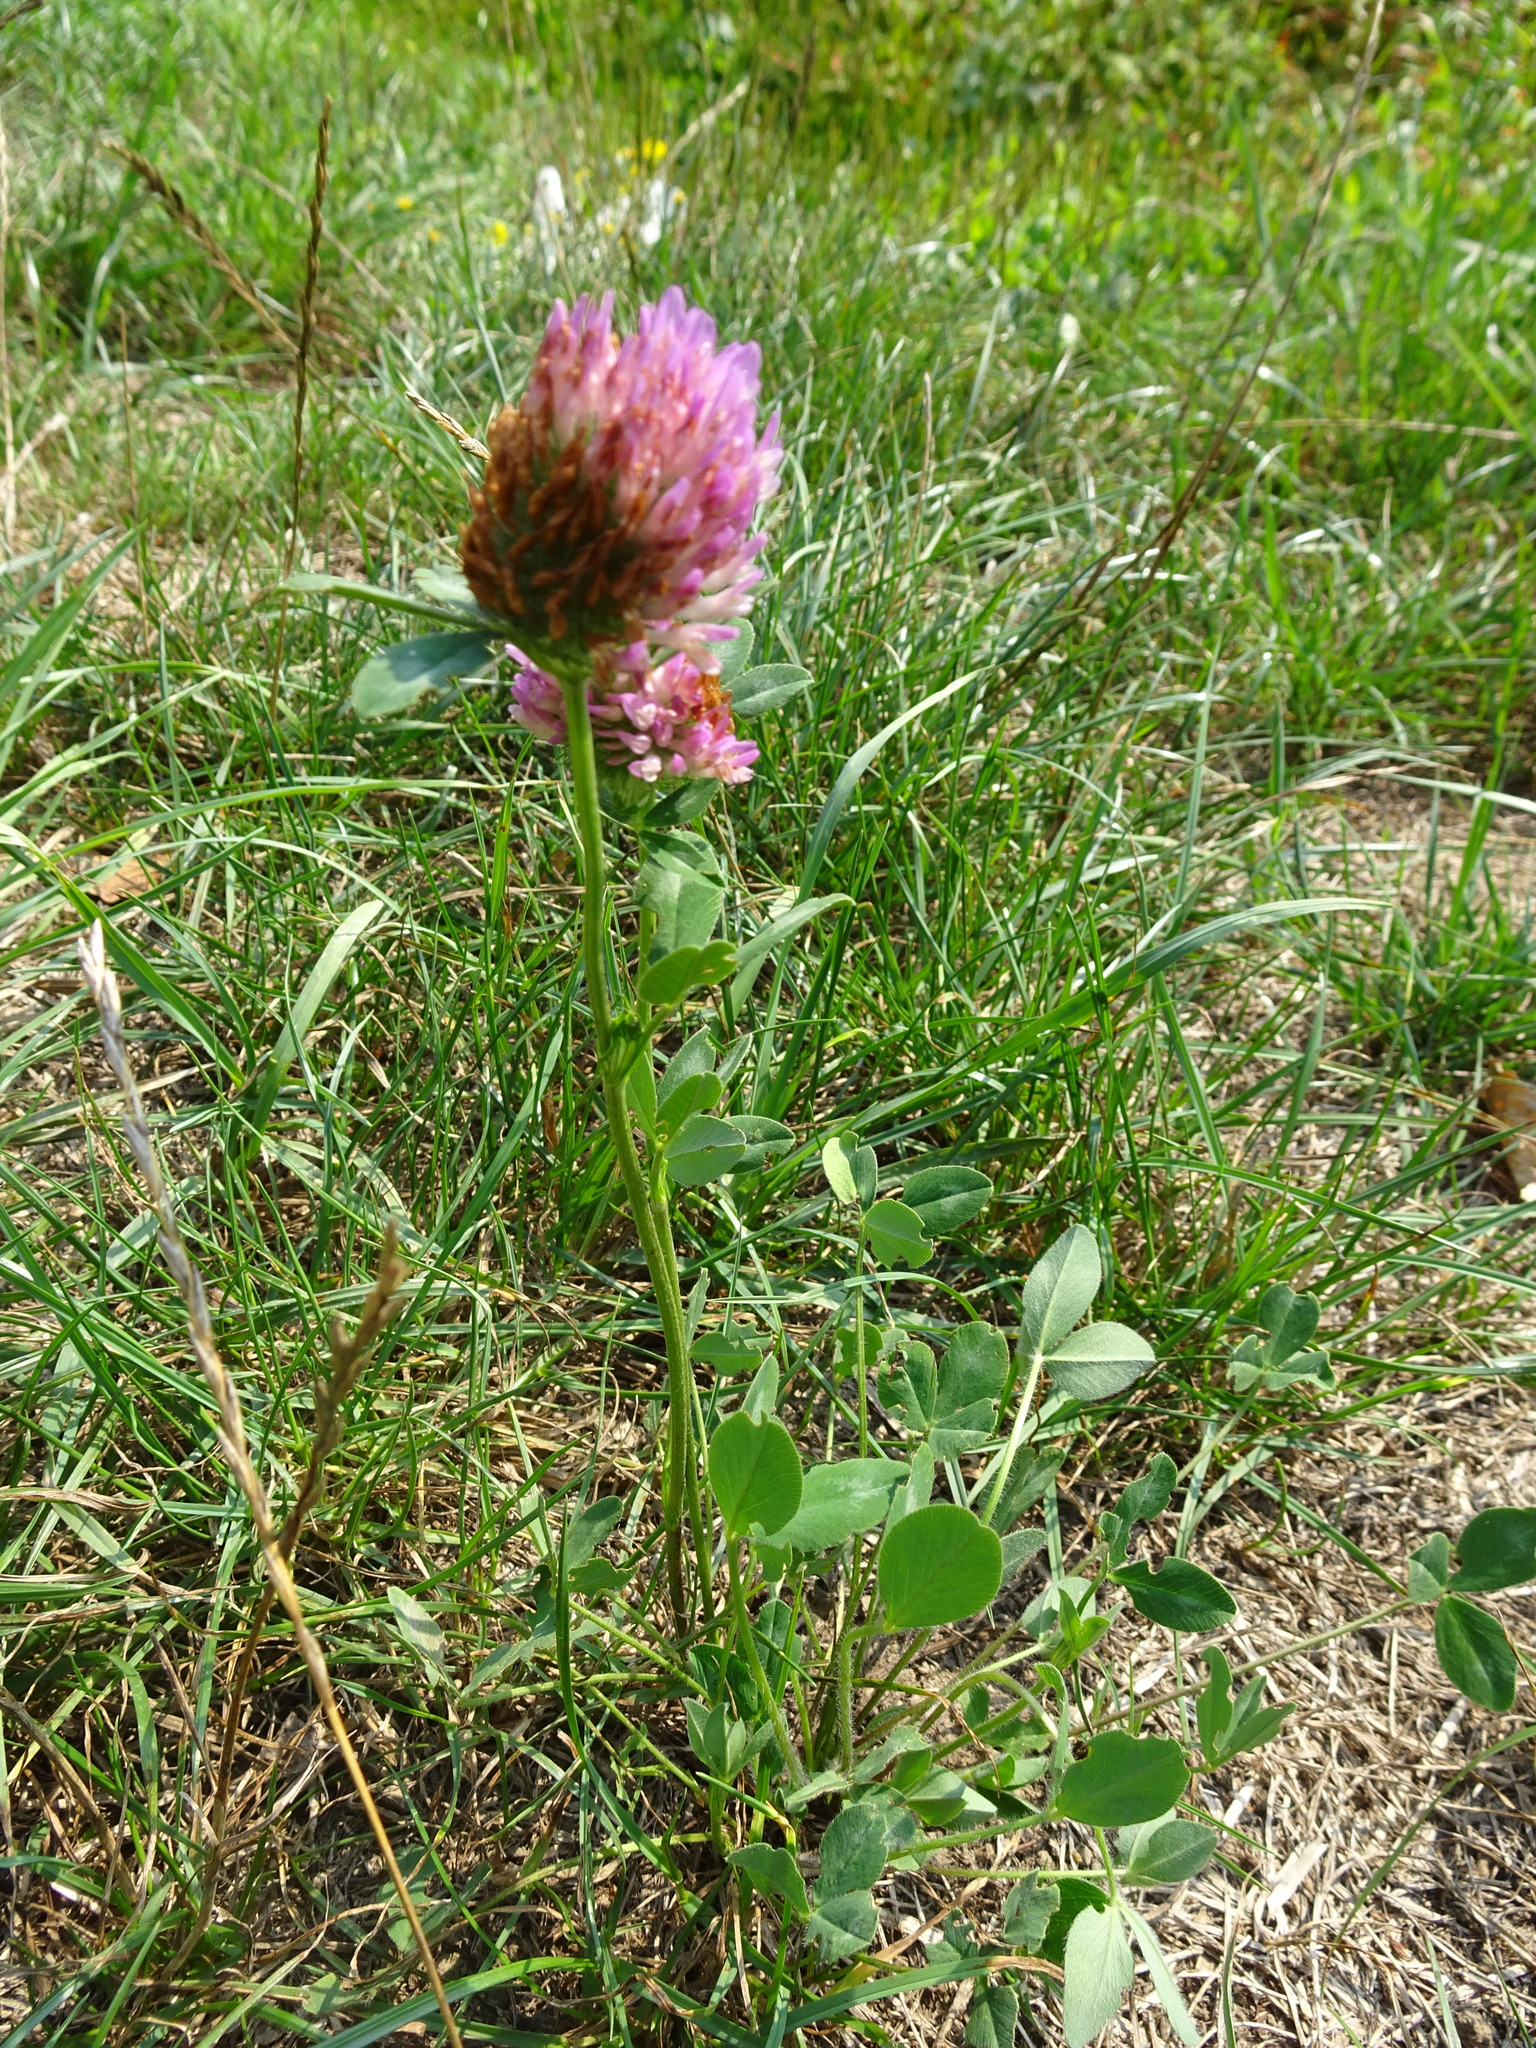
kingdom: Plantae
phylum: Tracheophyta
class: Magnoliopsida
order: Fabales
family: Fabaceae
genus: Trifolium
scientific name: Trifolium pratense
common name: Red clover
